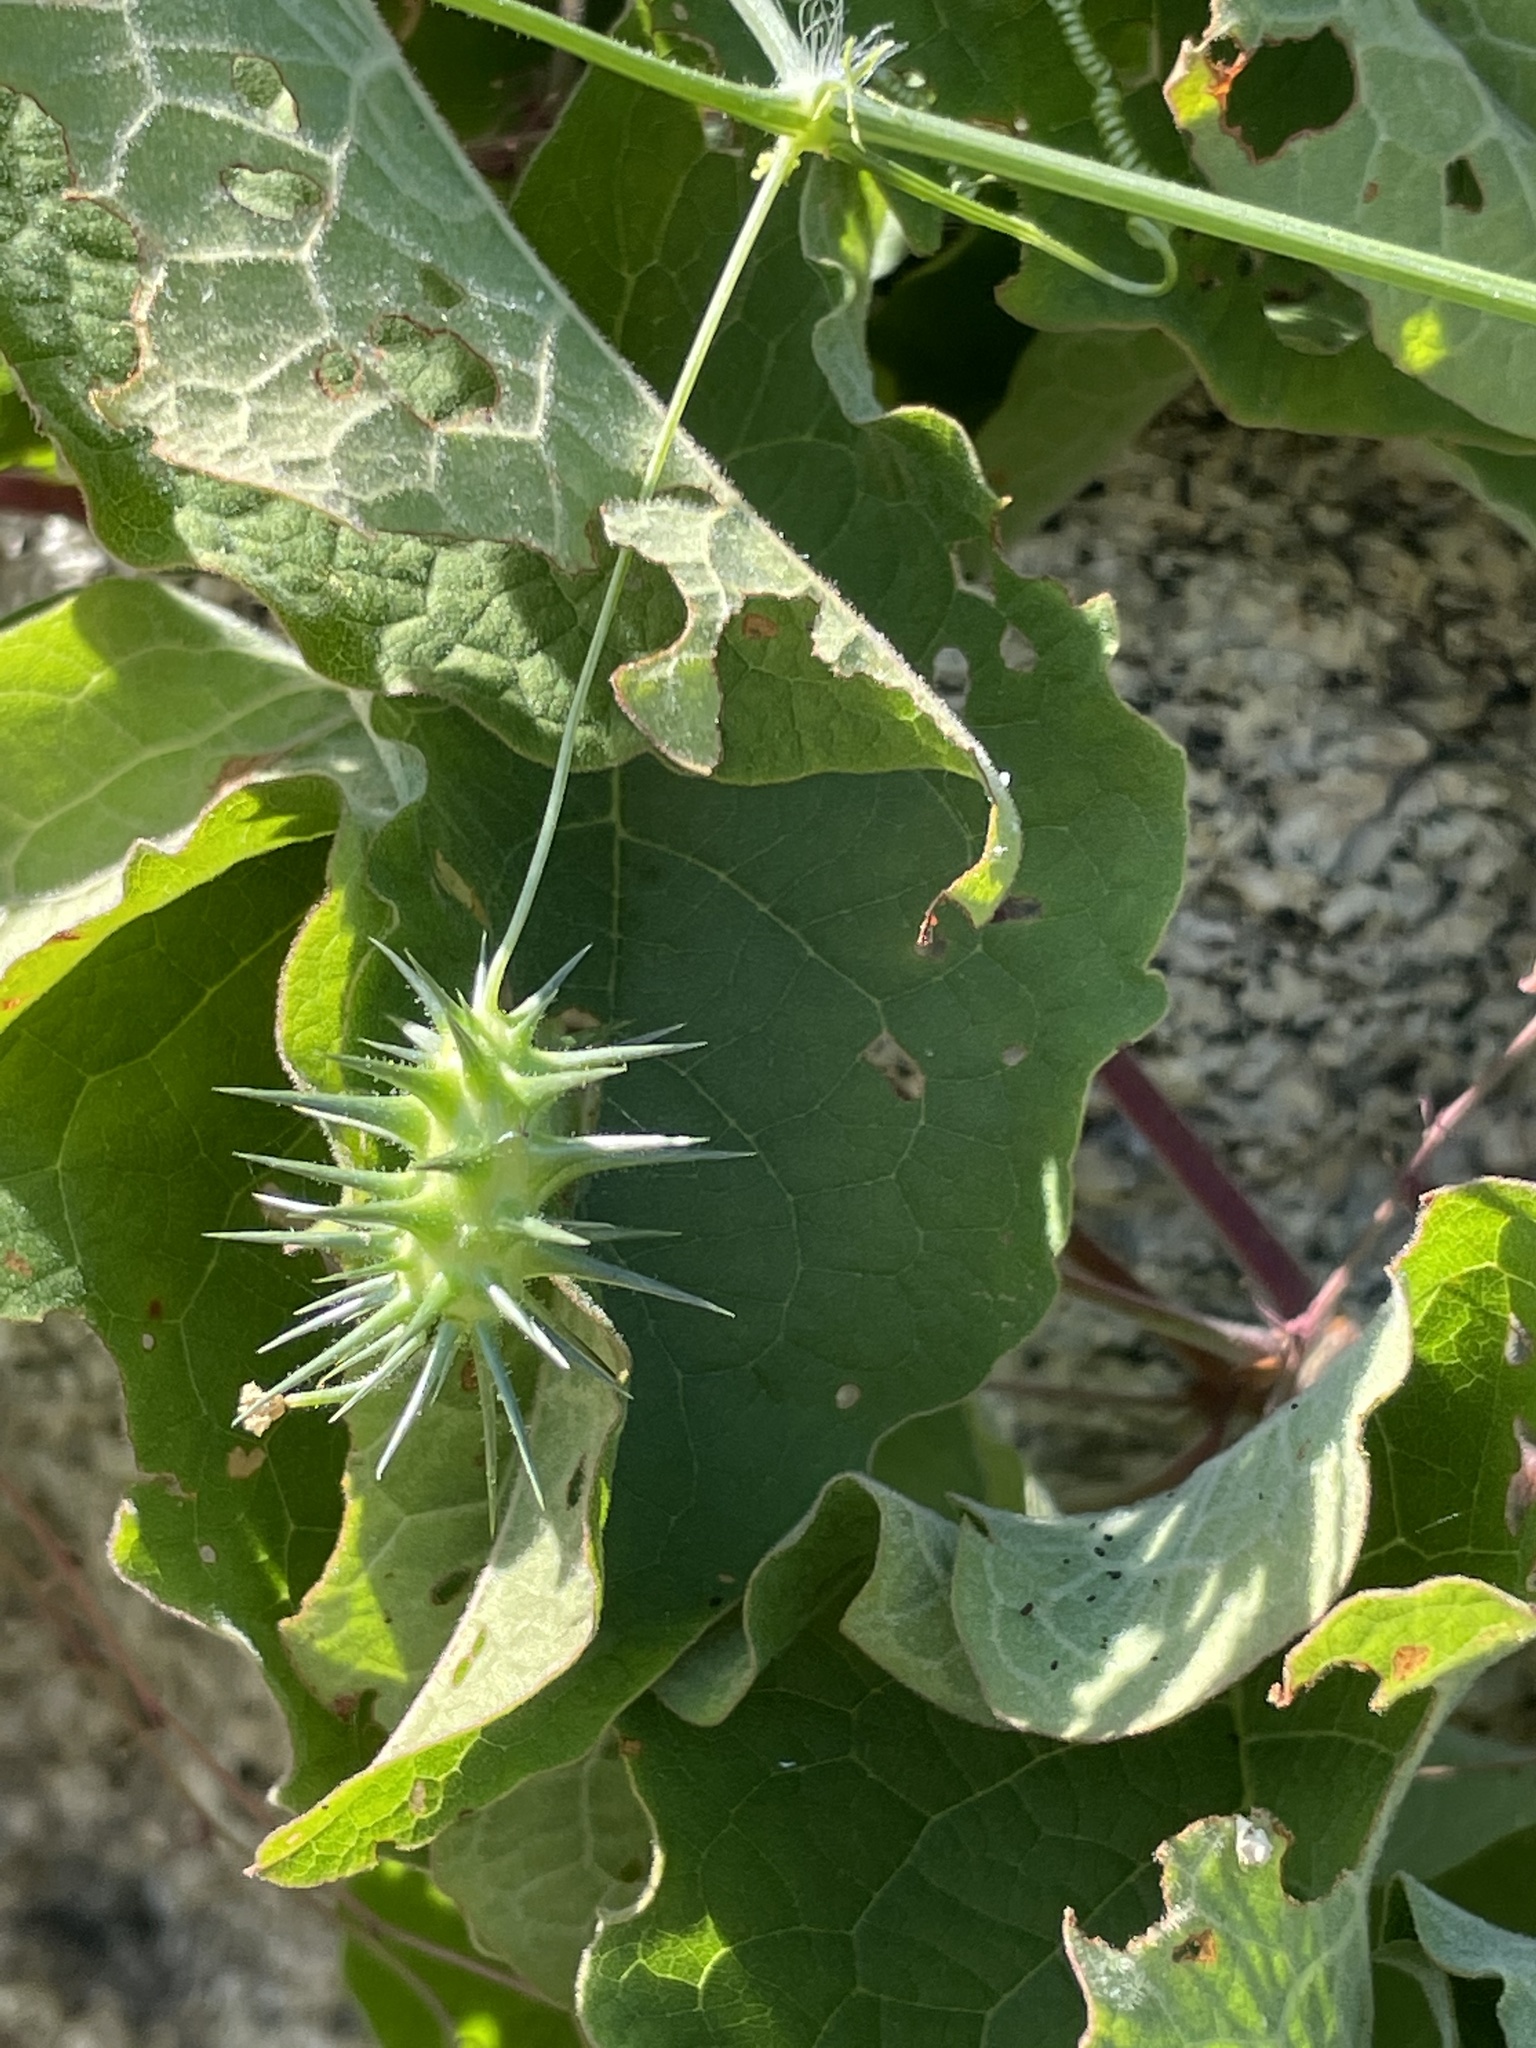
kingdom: Plantae
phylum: Tracheophyta
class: Magnoliopsida
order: Cucurbitales
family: Cucurbitaceae
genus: Echinopepon
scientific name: Echinopepon minimus
